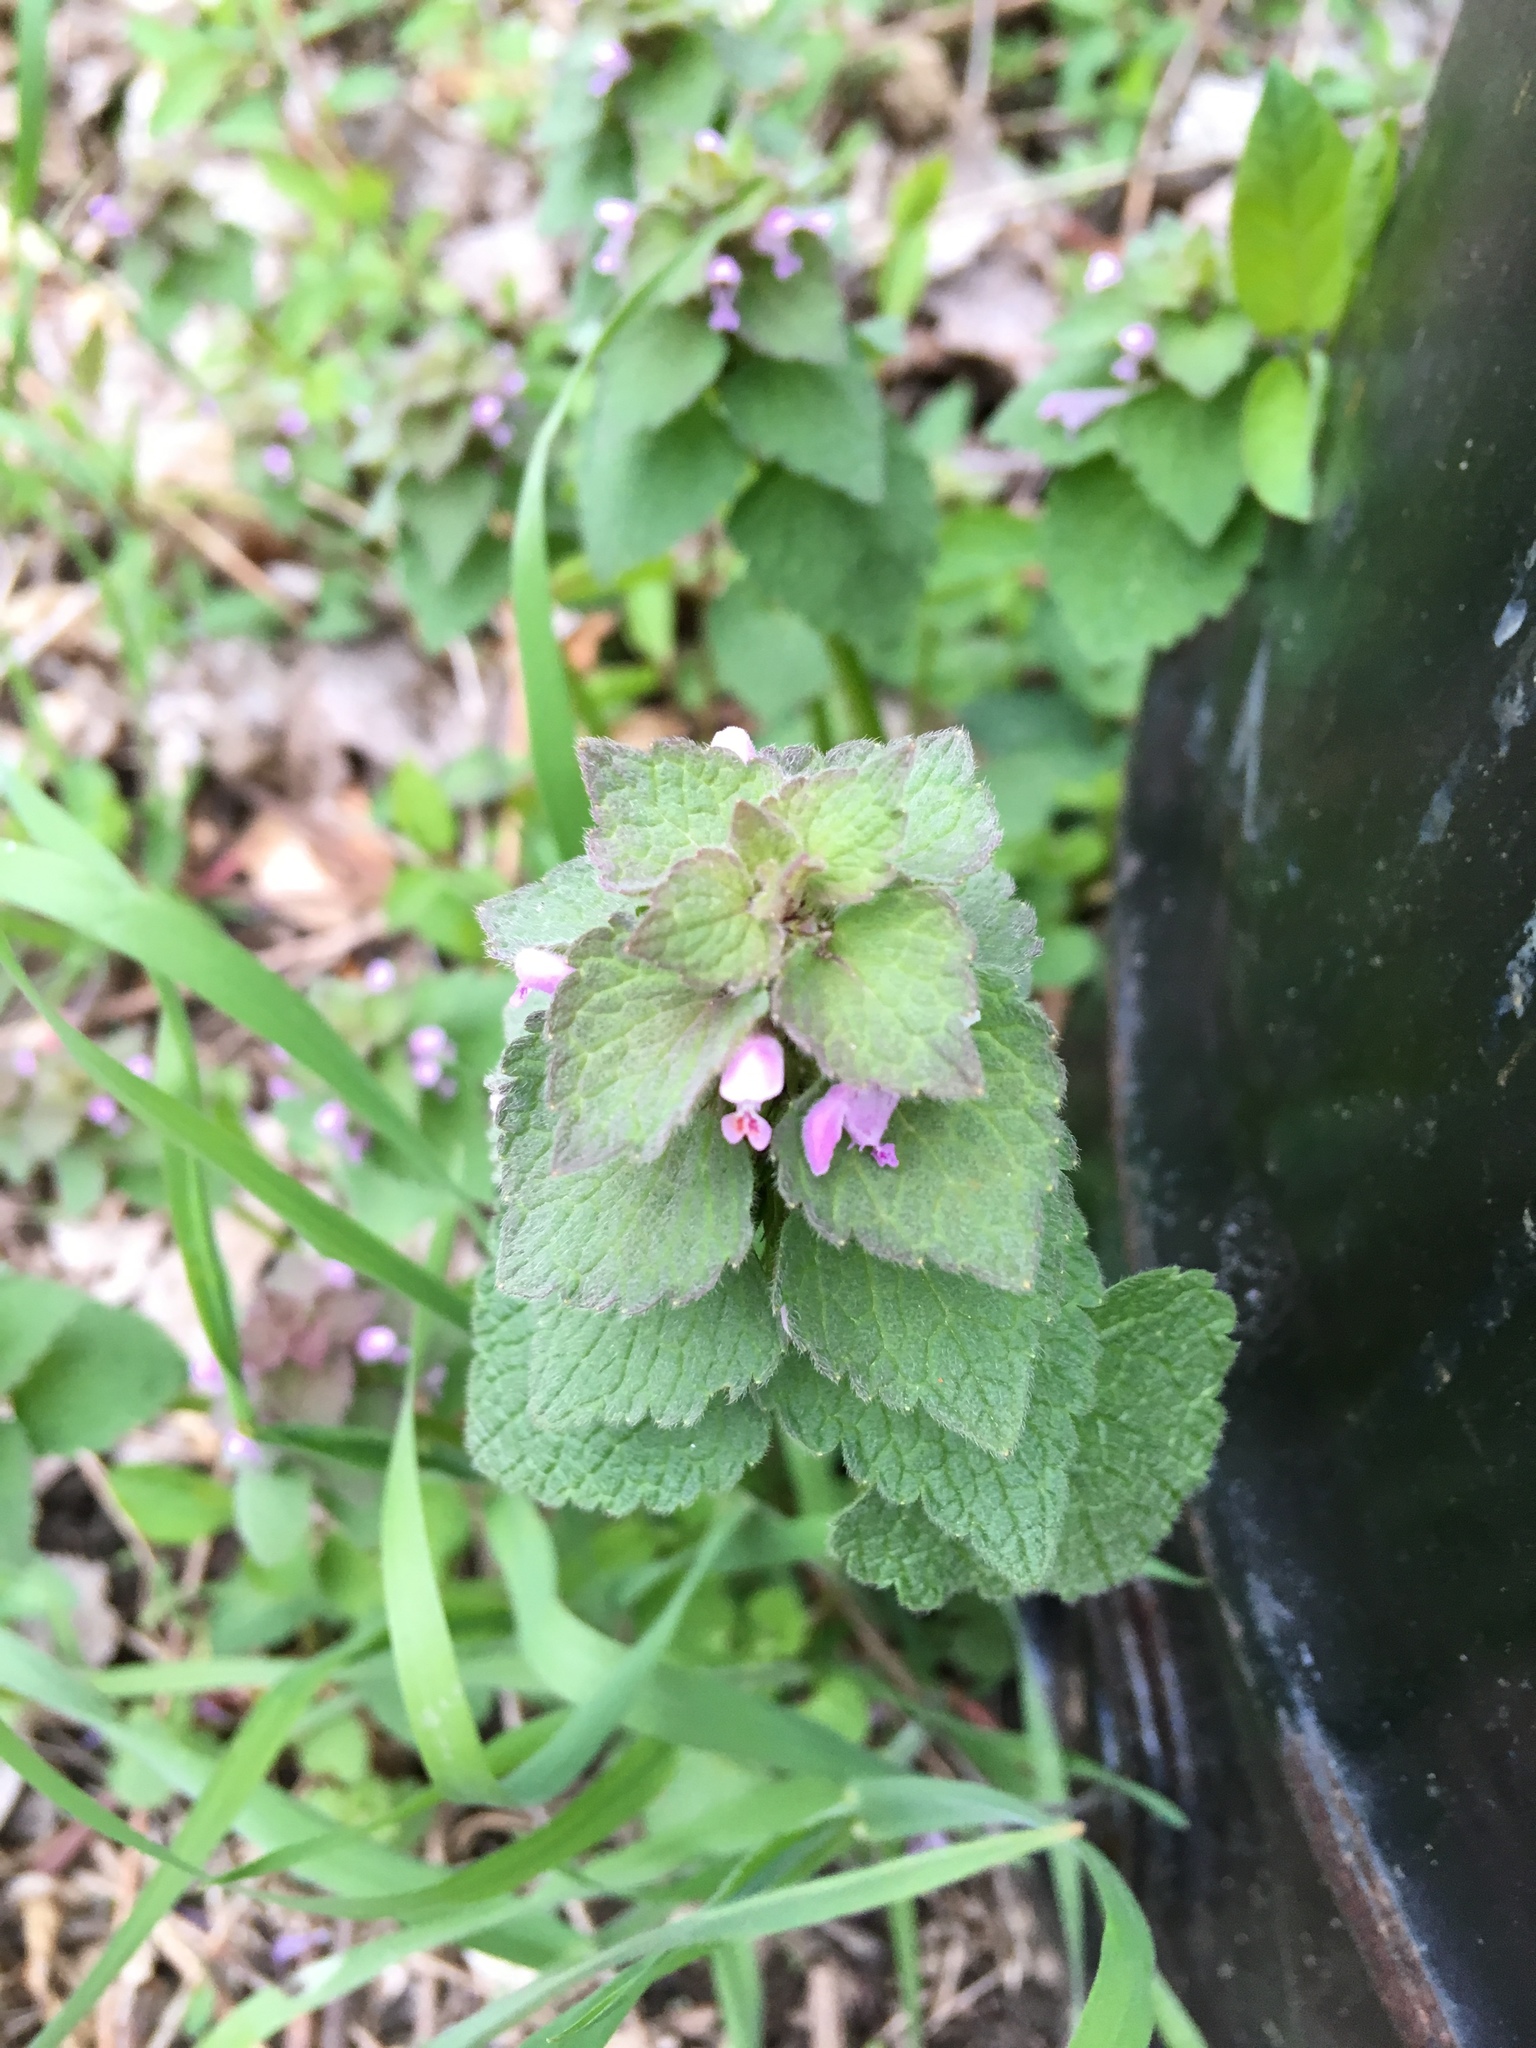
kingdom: Plantae
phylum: Tracheophyta
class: Magnoliopsida
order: Lamiales
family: Lamiaceae
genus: Lamium
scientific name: Lamium purpureum
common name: Red dead-nettle
